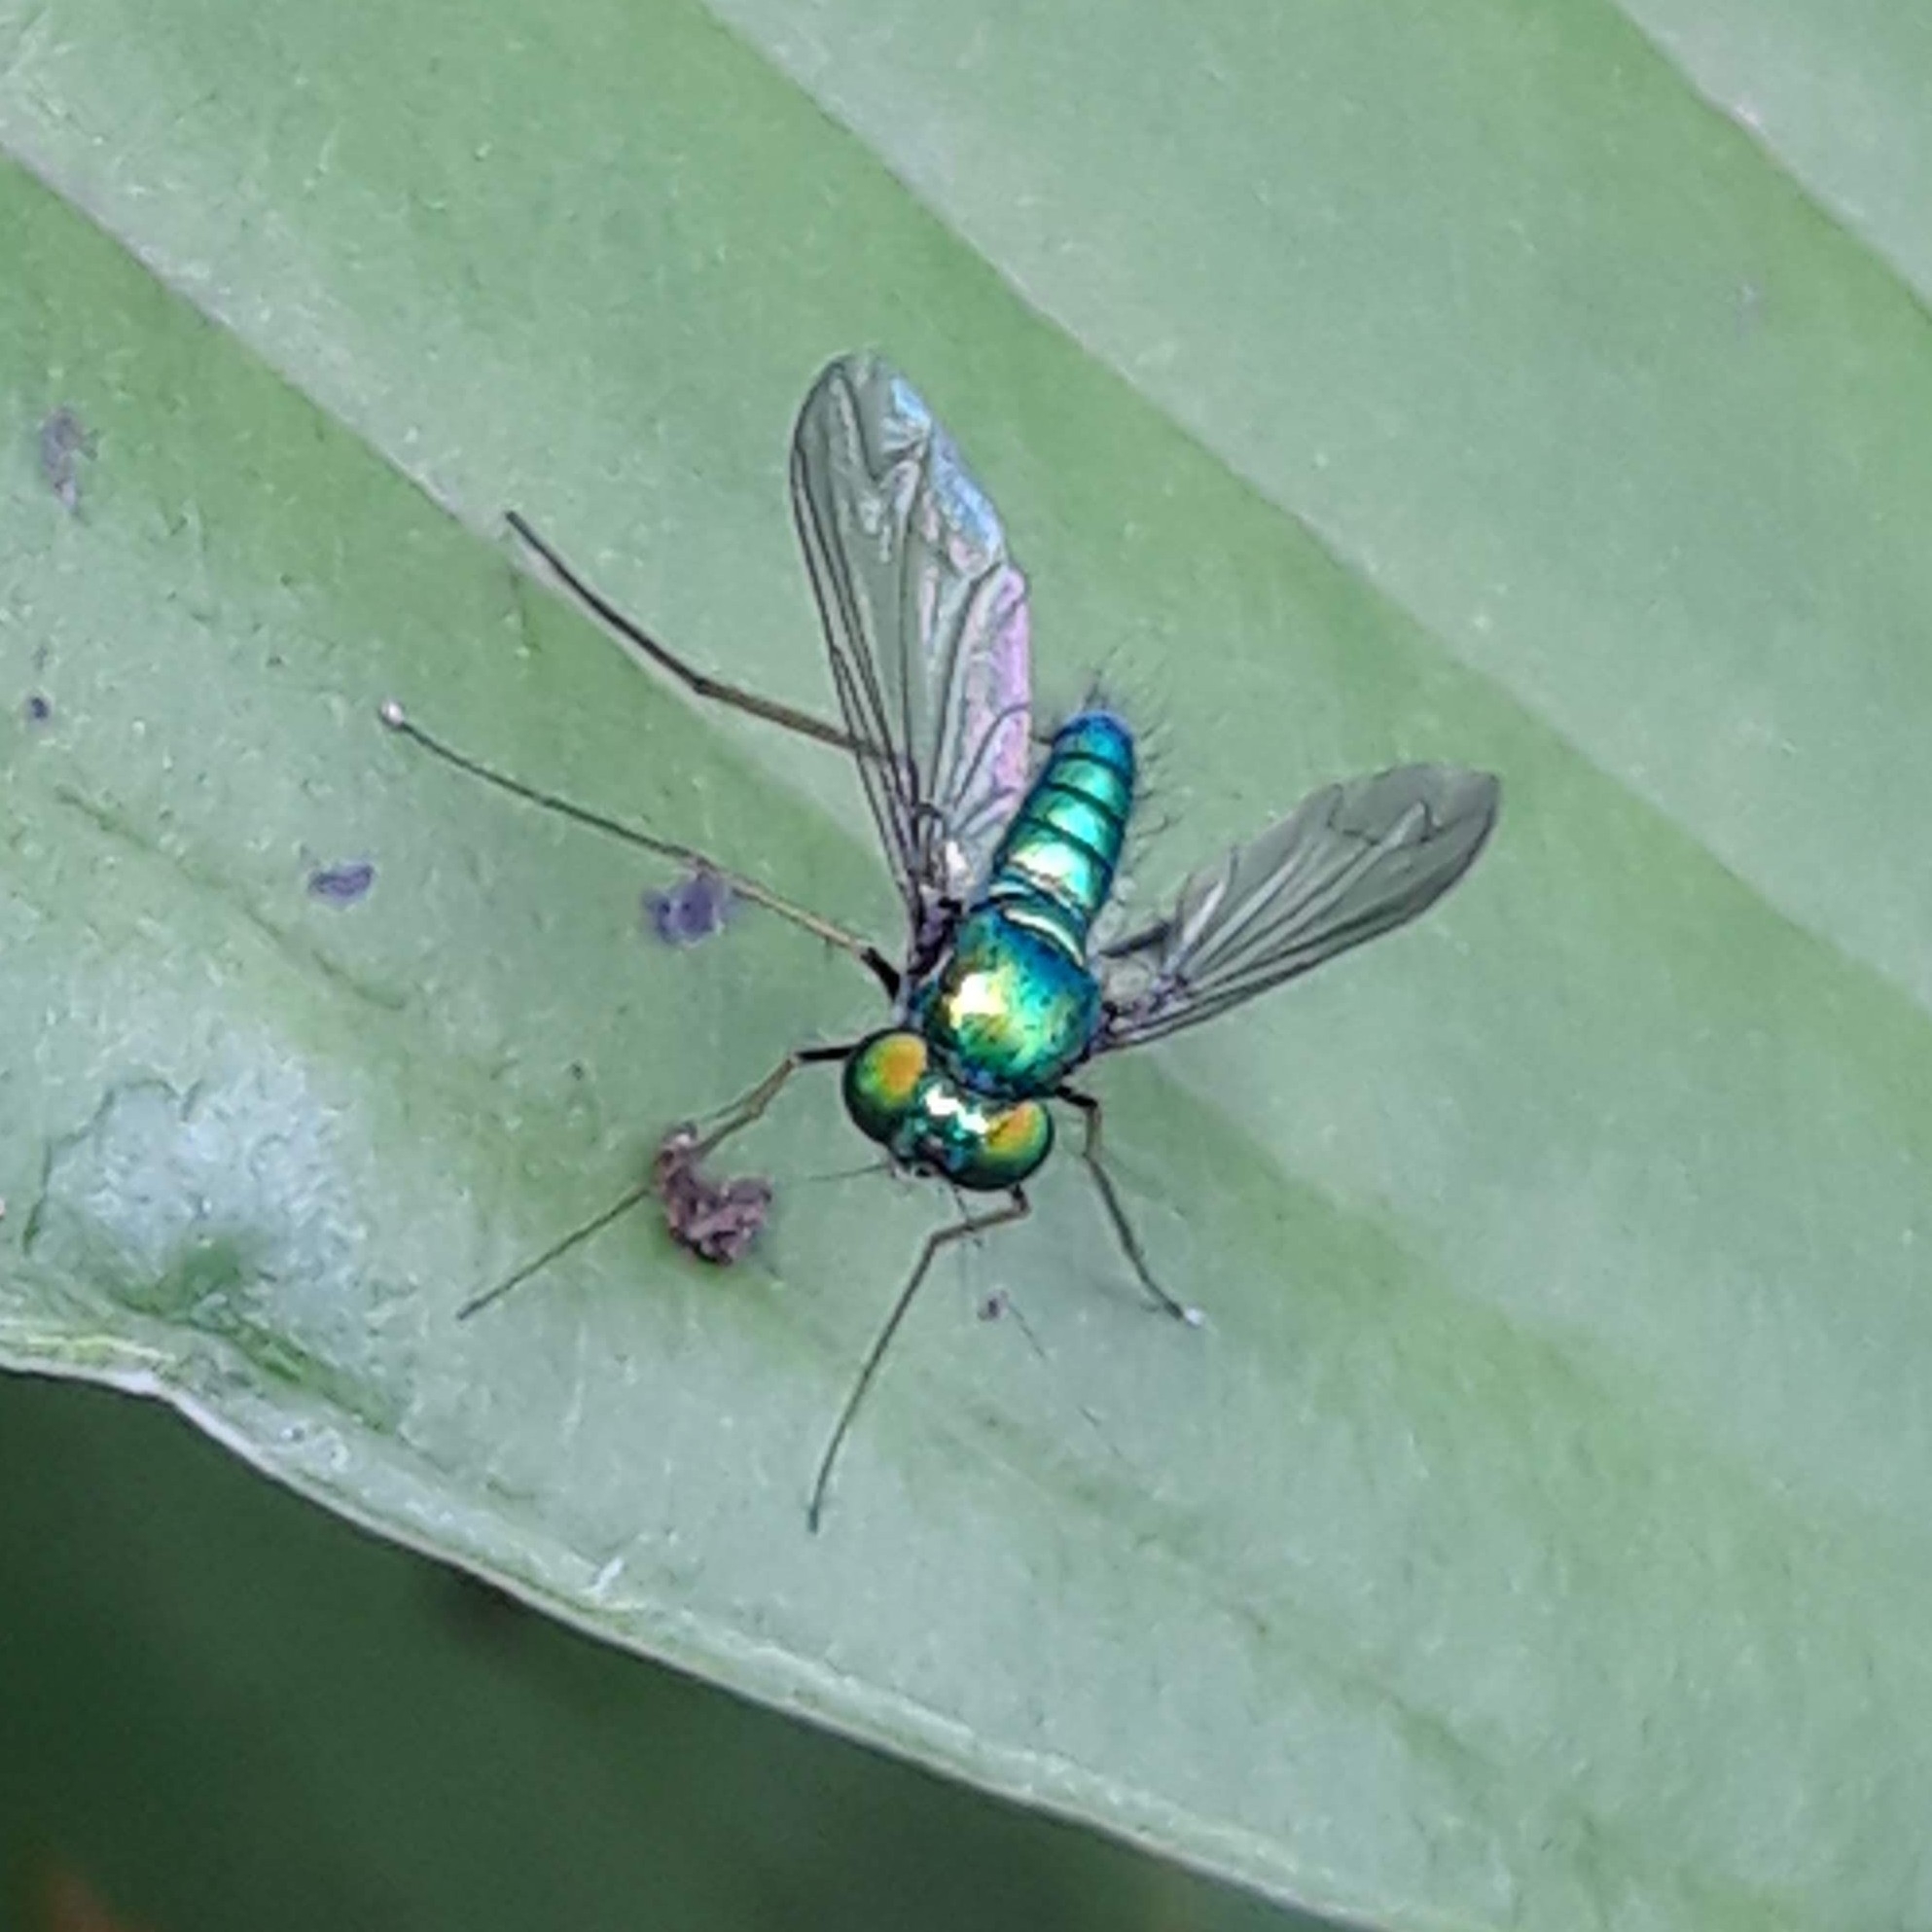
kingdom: Animalia
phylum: Arthropoda
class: Insecta
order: Diptera
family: Dolichopodidae
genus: Condylostylus
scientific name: Condylostylus
